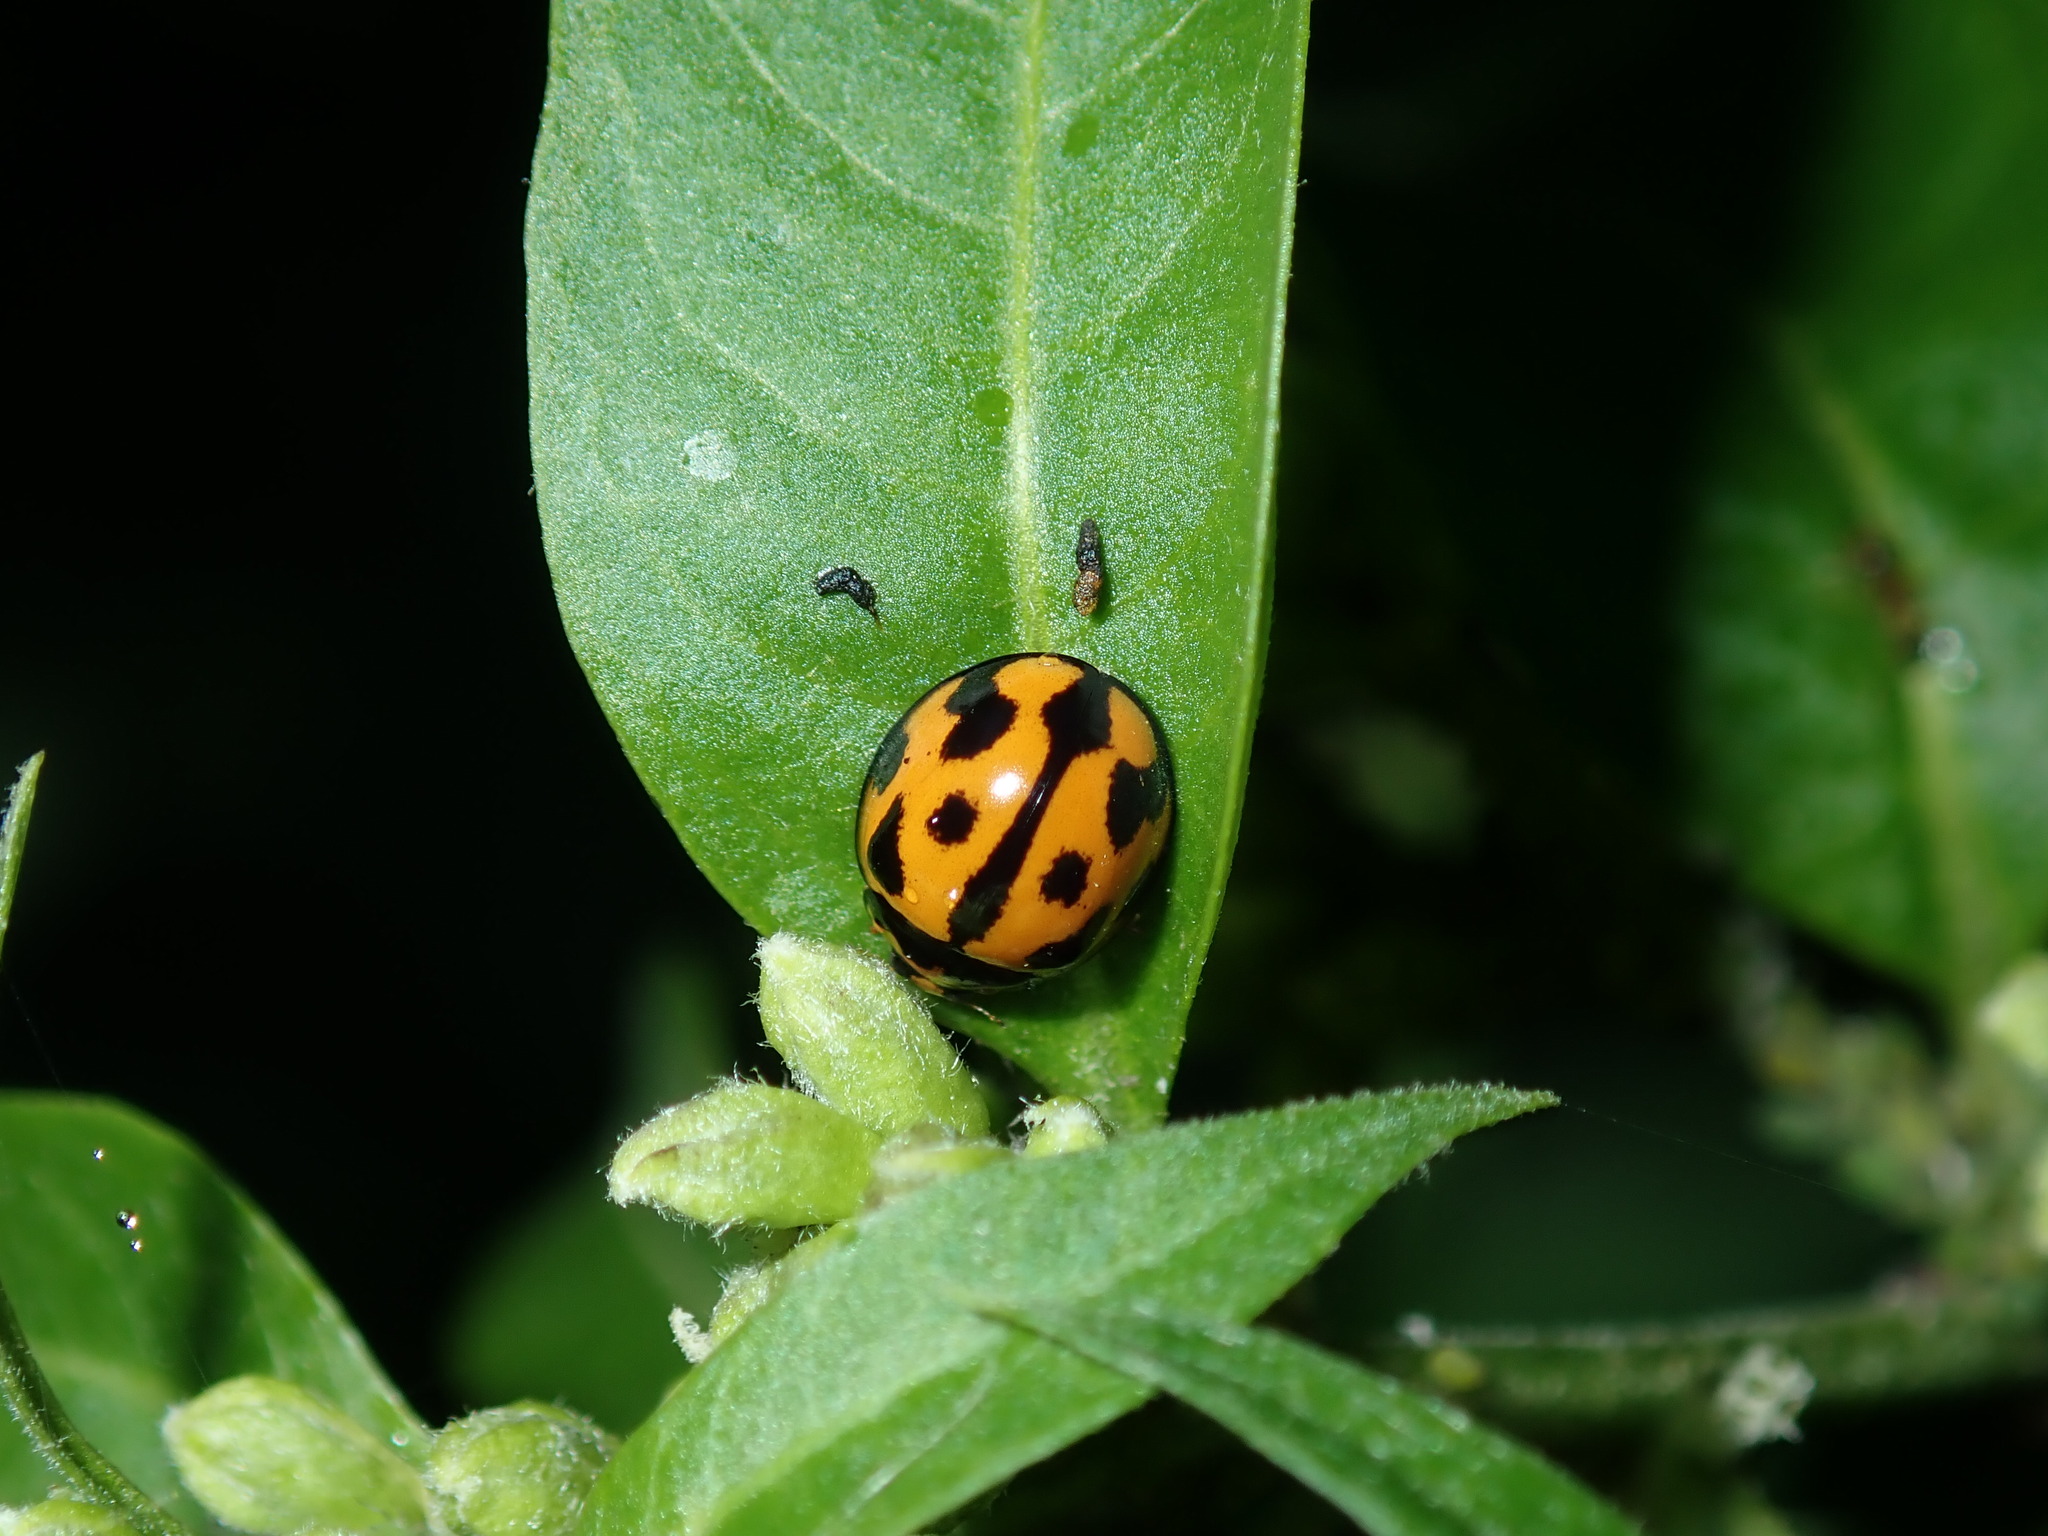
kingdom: Animalia
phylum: Arthropoda
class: Insecta
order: Coleoptera
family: Coccinellidae
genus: Coelophora
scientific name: Coelophora inaequalis
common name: Common australian lady beetle
